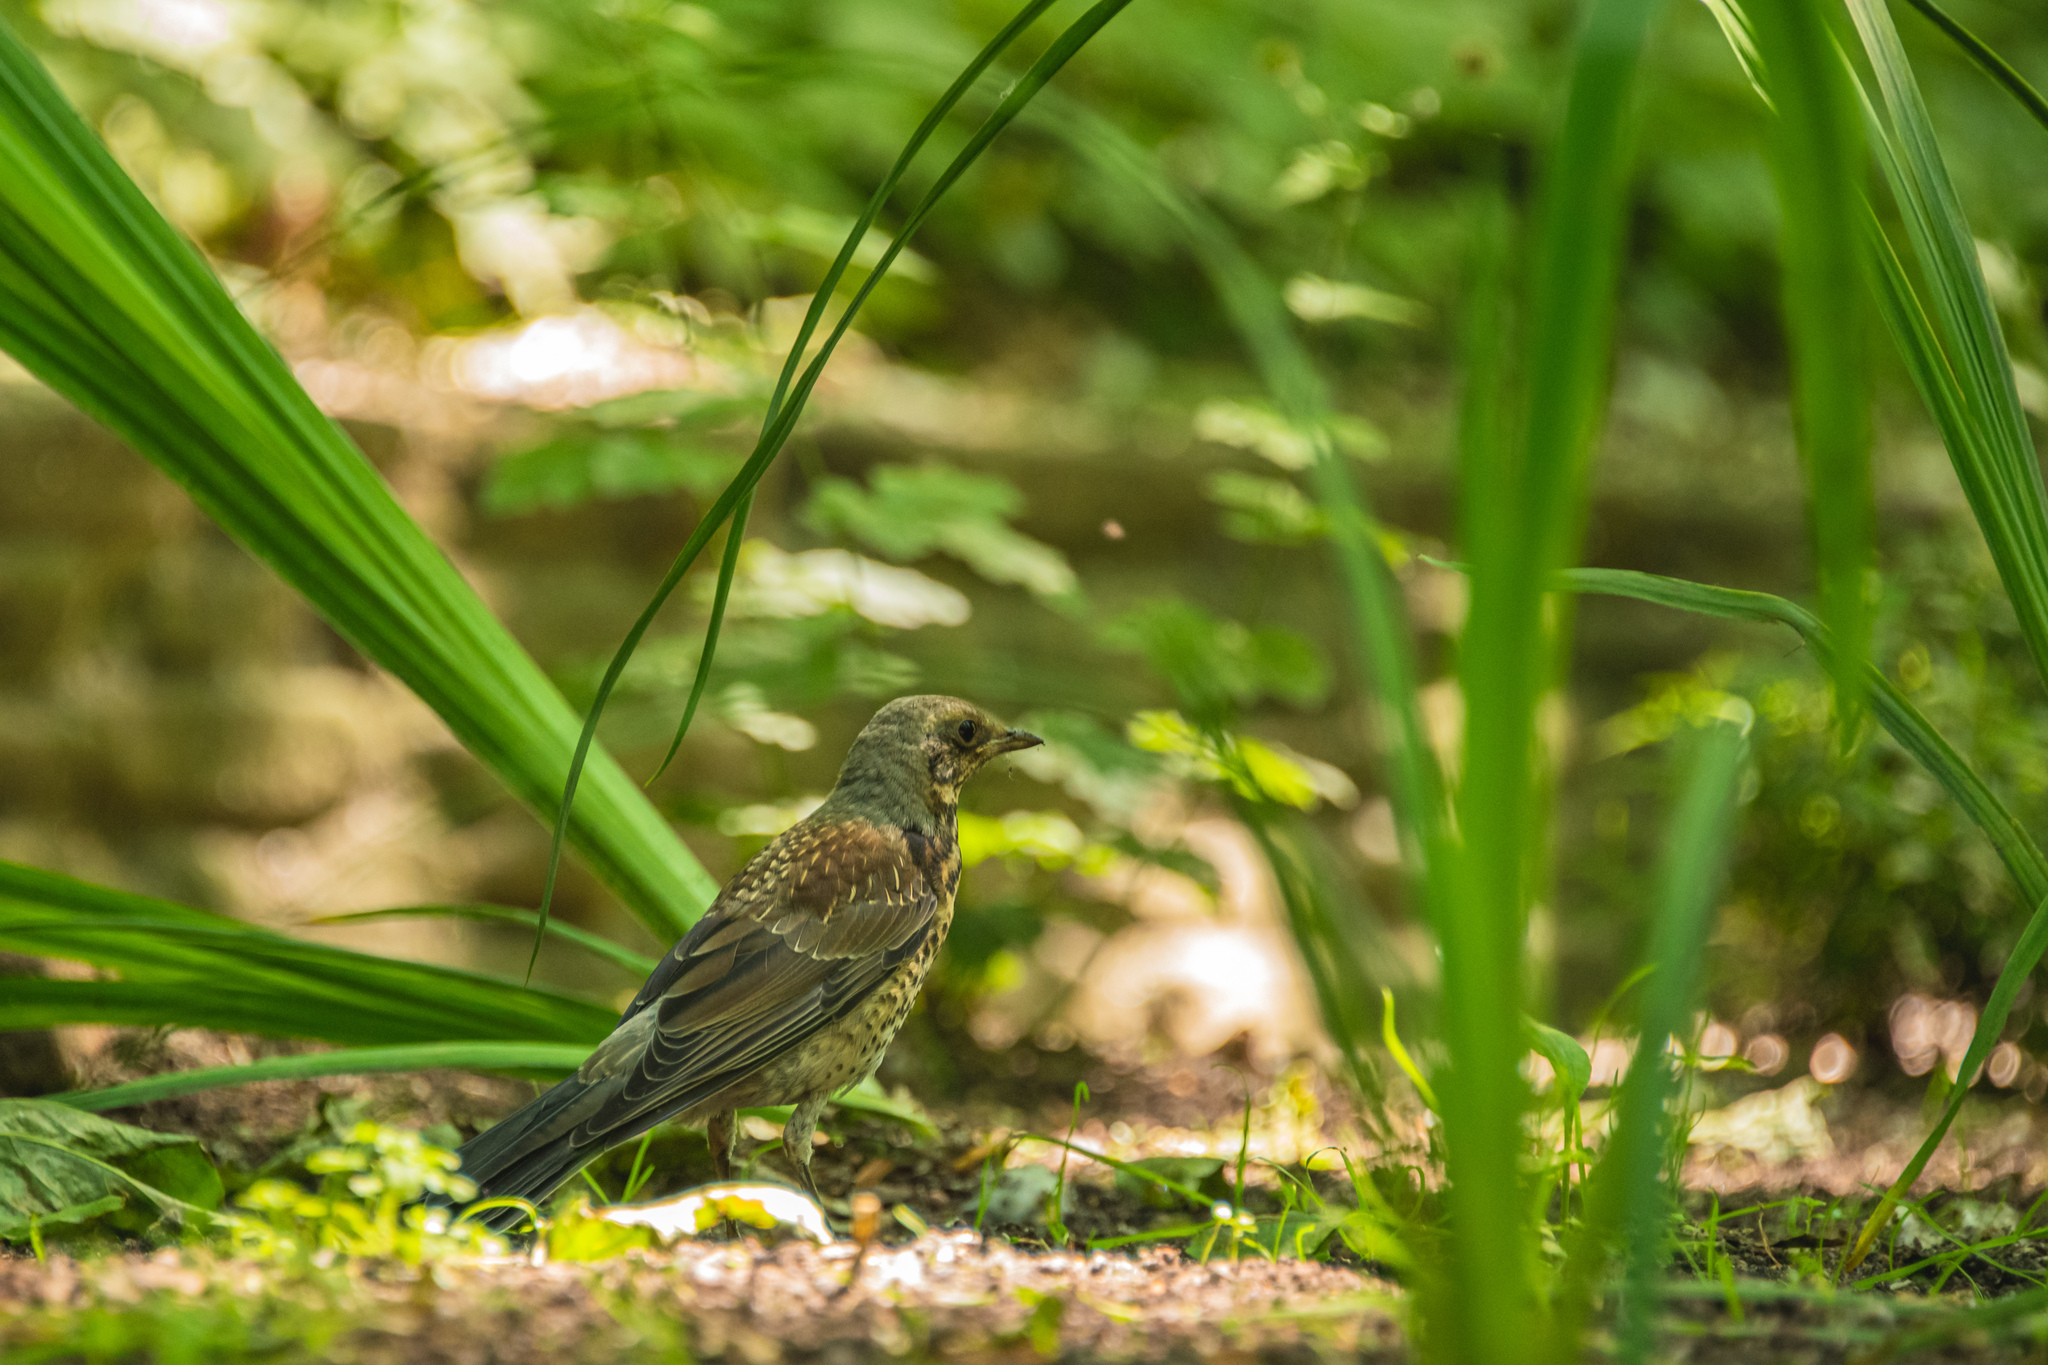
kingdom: Animalia
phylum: Chordata
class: Aves
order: Passeriformes
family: Turdidae
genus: Turdus
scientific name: Turdus pilaris
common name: Fieldfare
